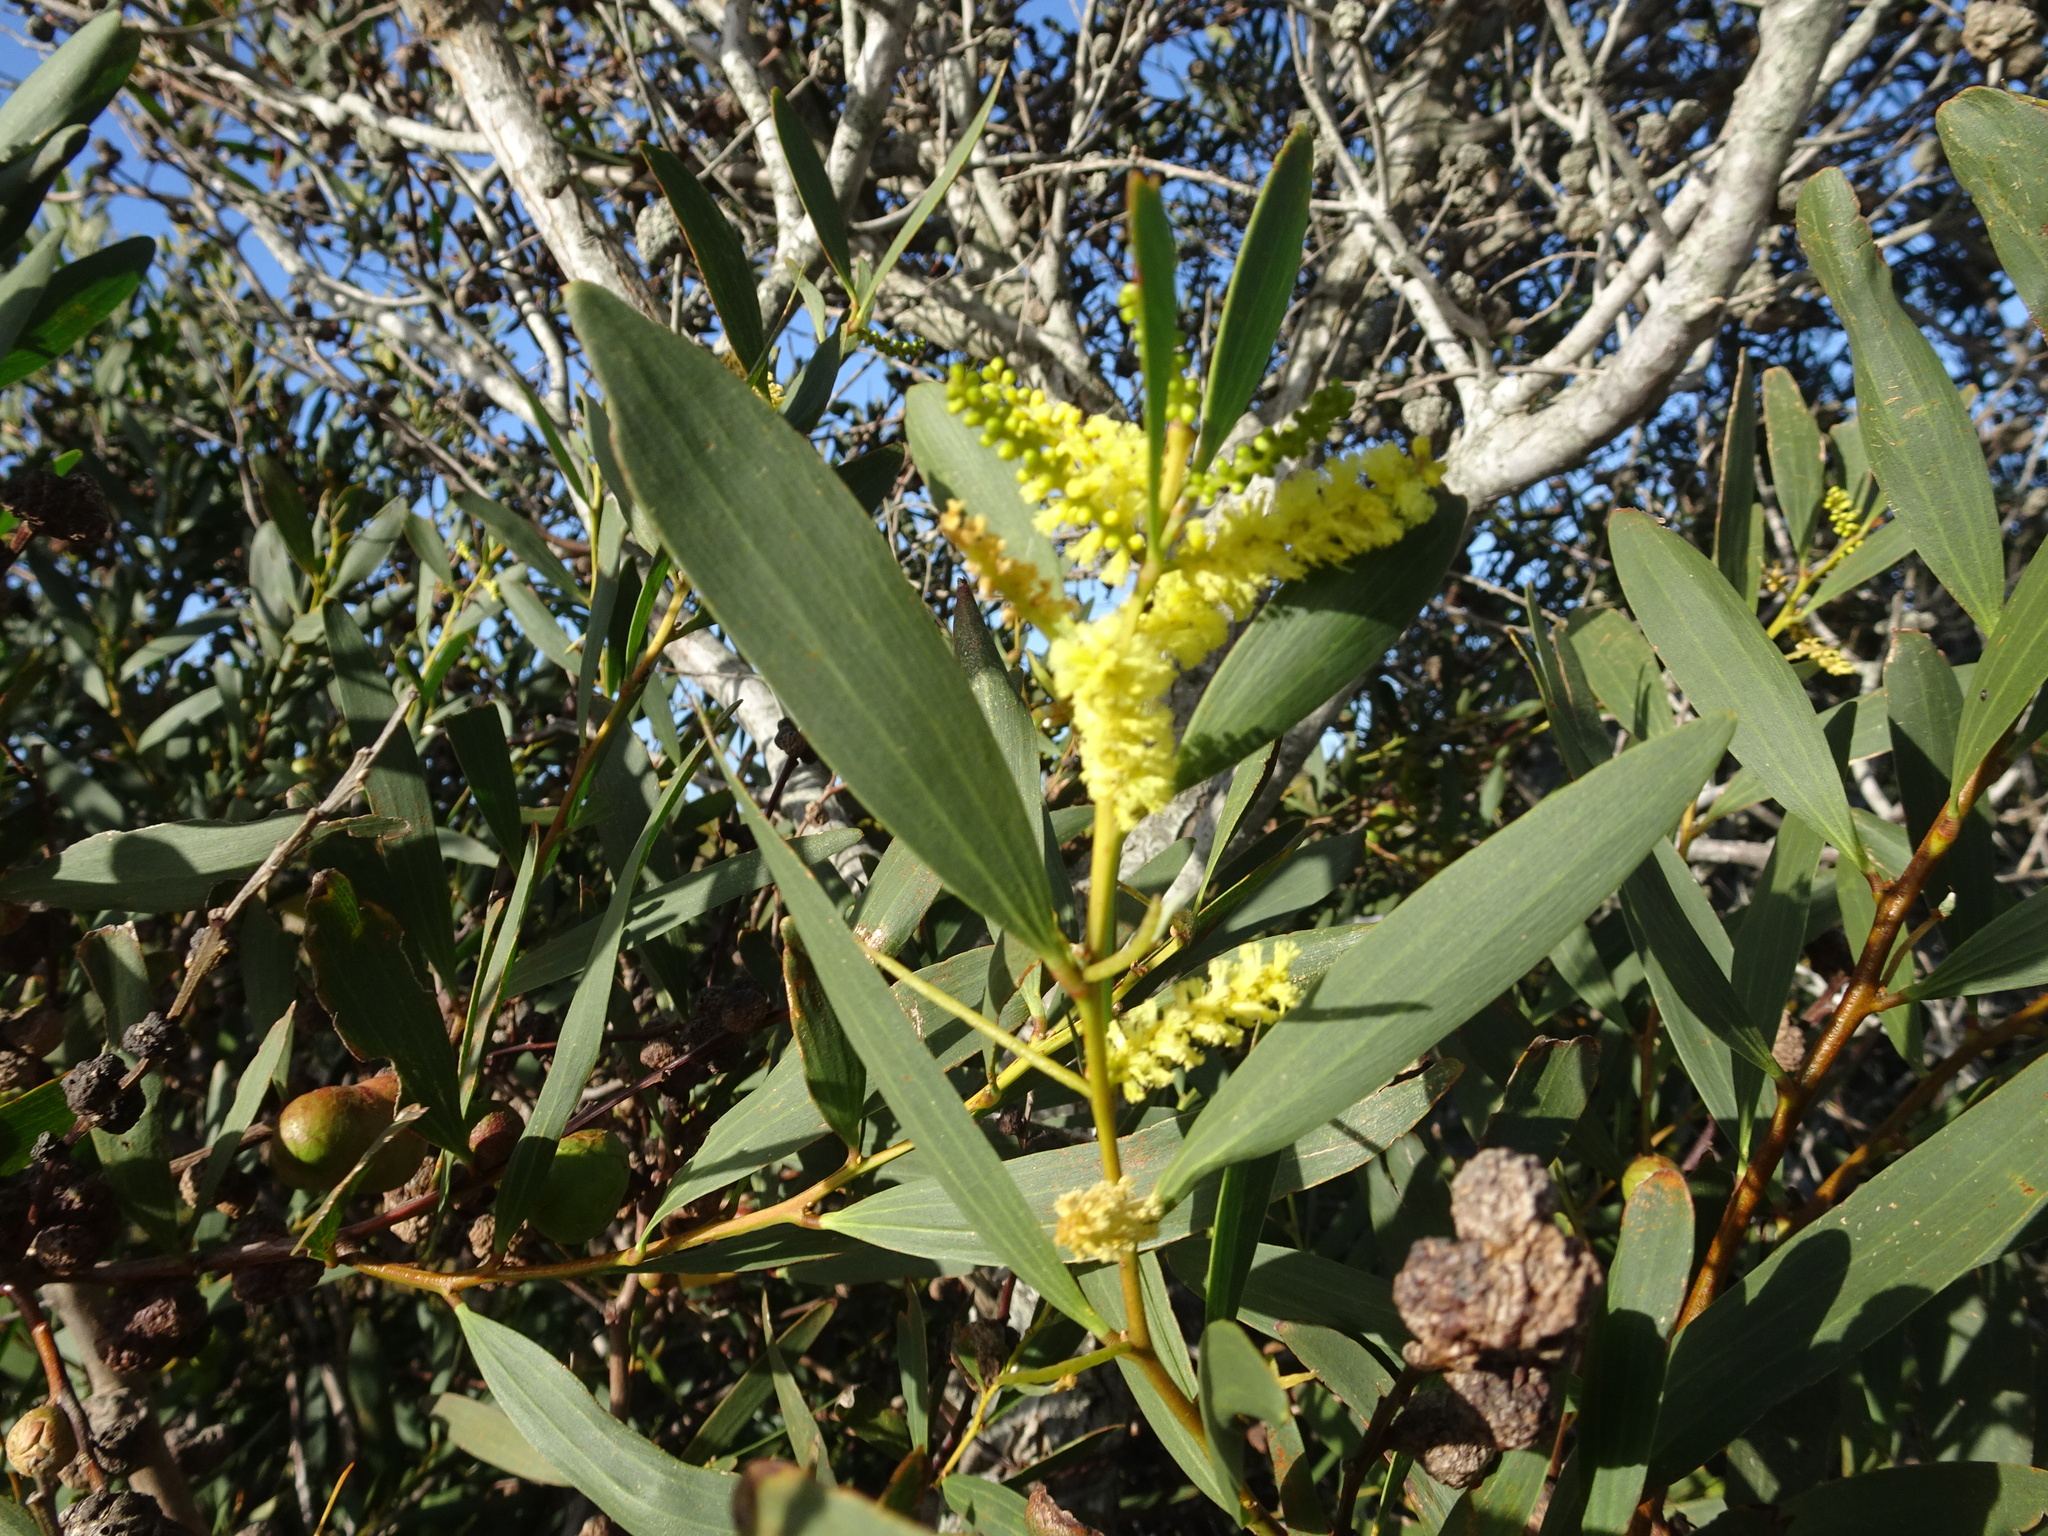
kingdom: Plantae
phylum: Tracheophyta
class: Magnoliopsida
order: Fabales
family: Fabaceae
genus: Acacia
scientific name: Acacia longifolia
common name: Sydney golden wattle
